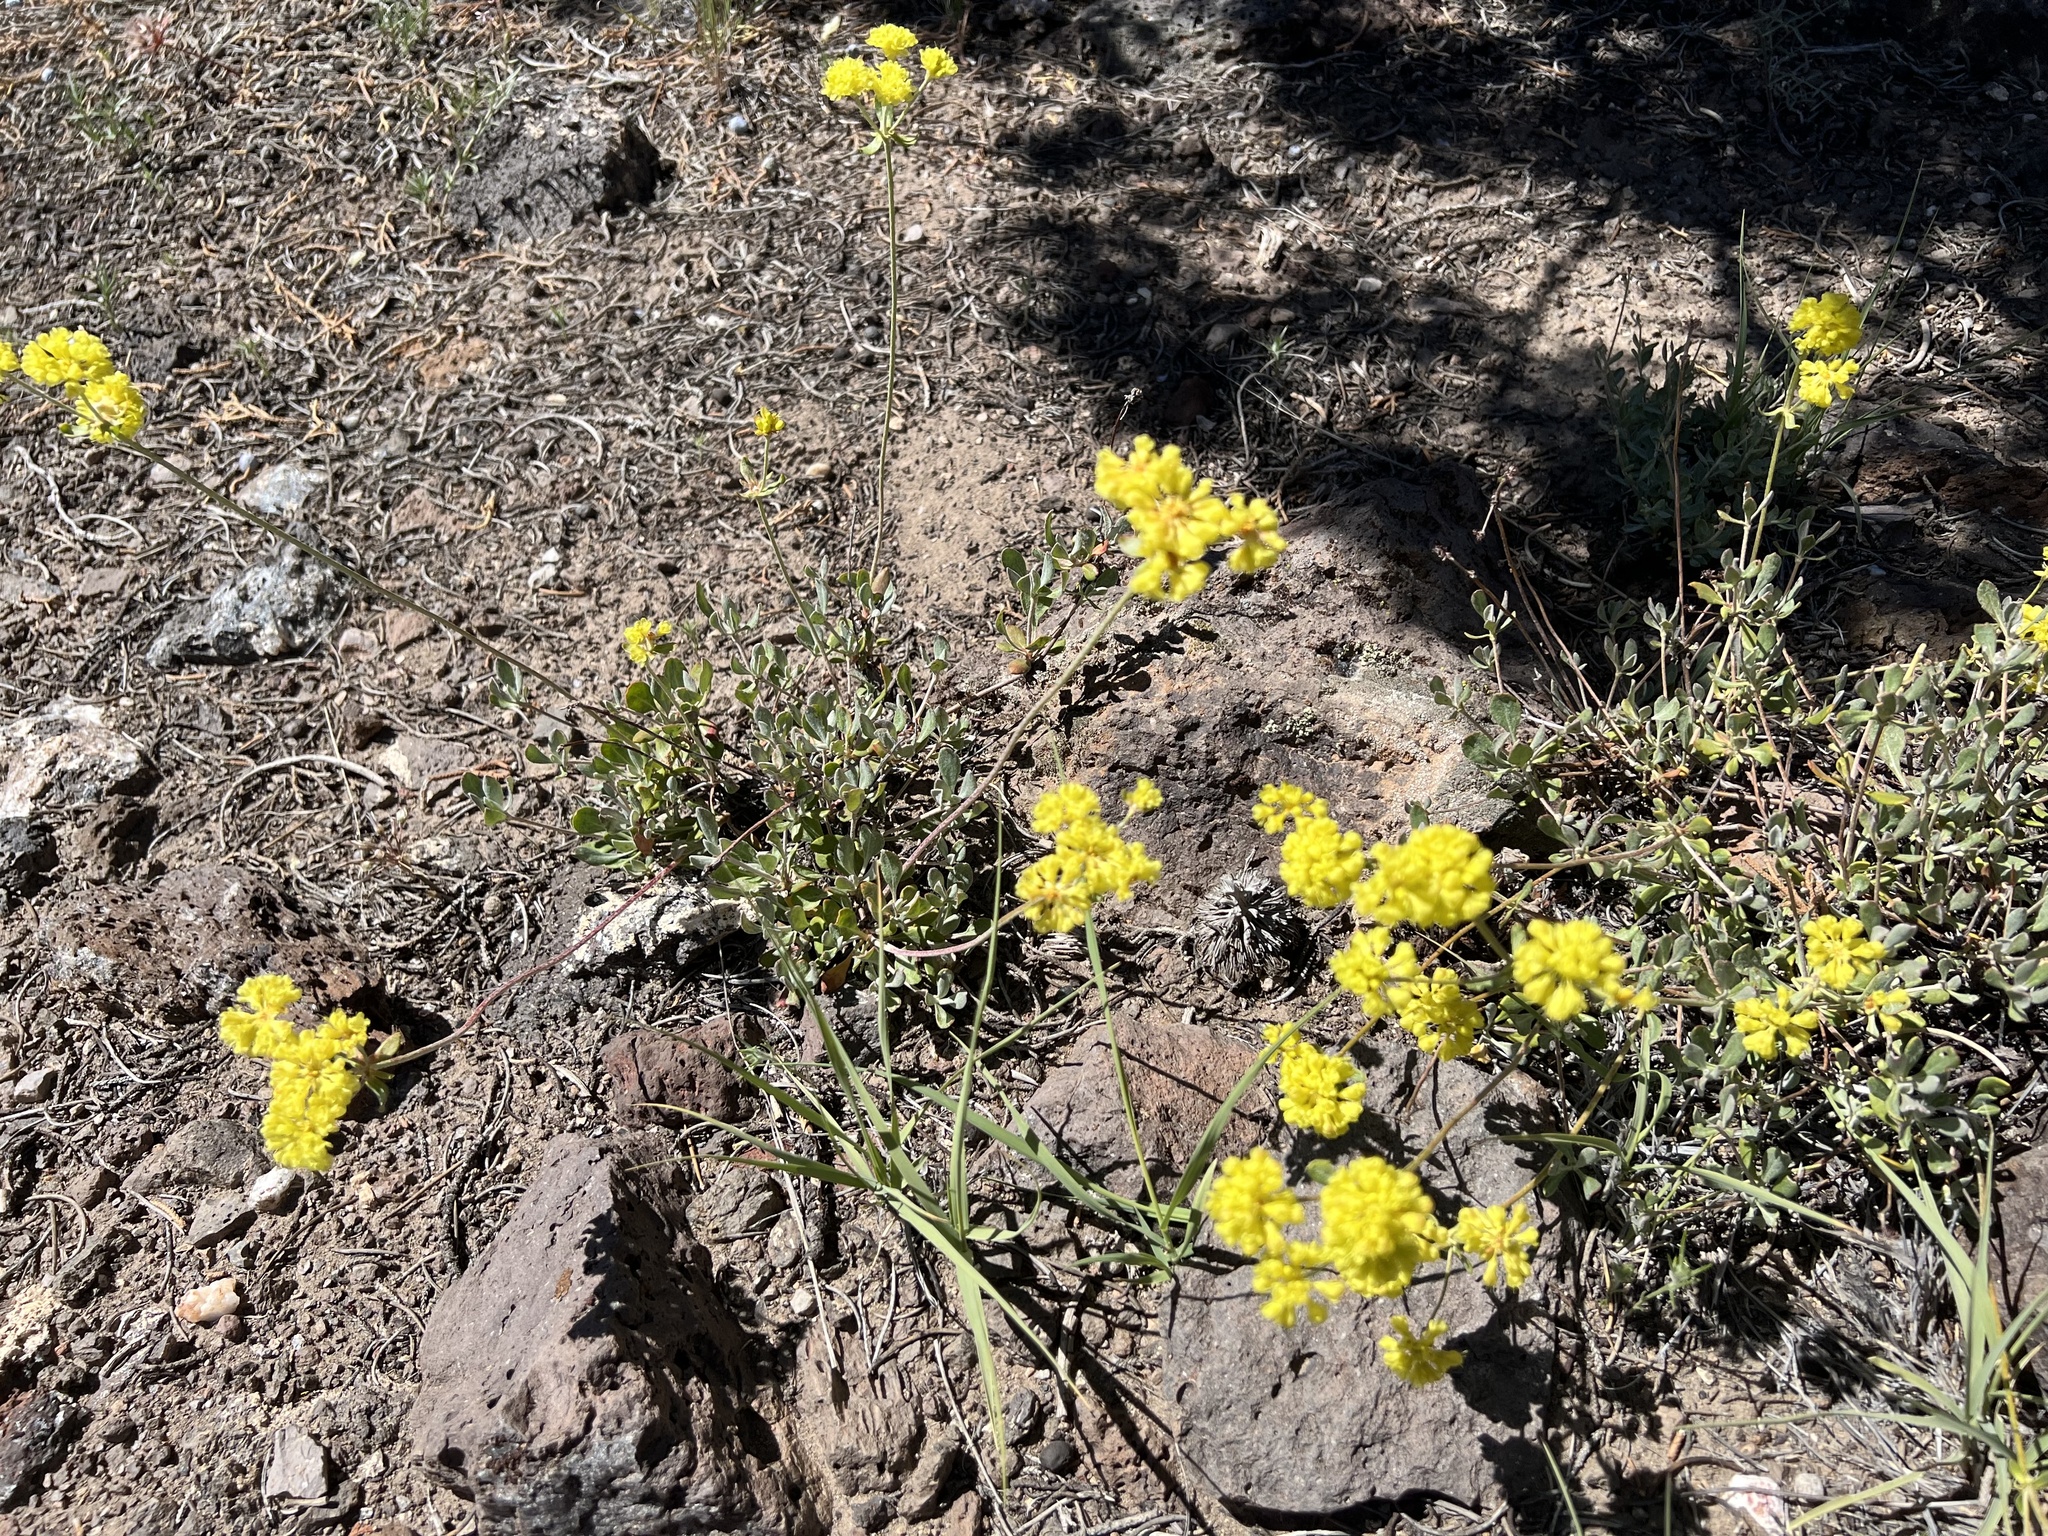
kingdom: Plantae
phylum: Tracheophyta
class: Magnoliopsida
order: Caryophyllales
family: Polygonaceae
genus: Eriogonum
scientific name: Eriogonum umbellatum
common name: Sulfur-buckwheat
